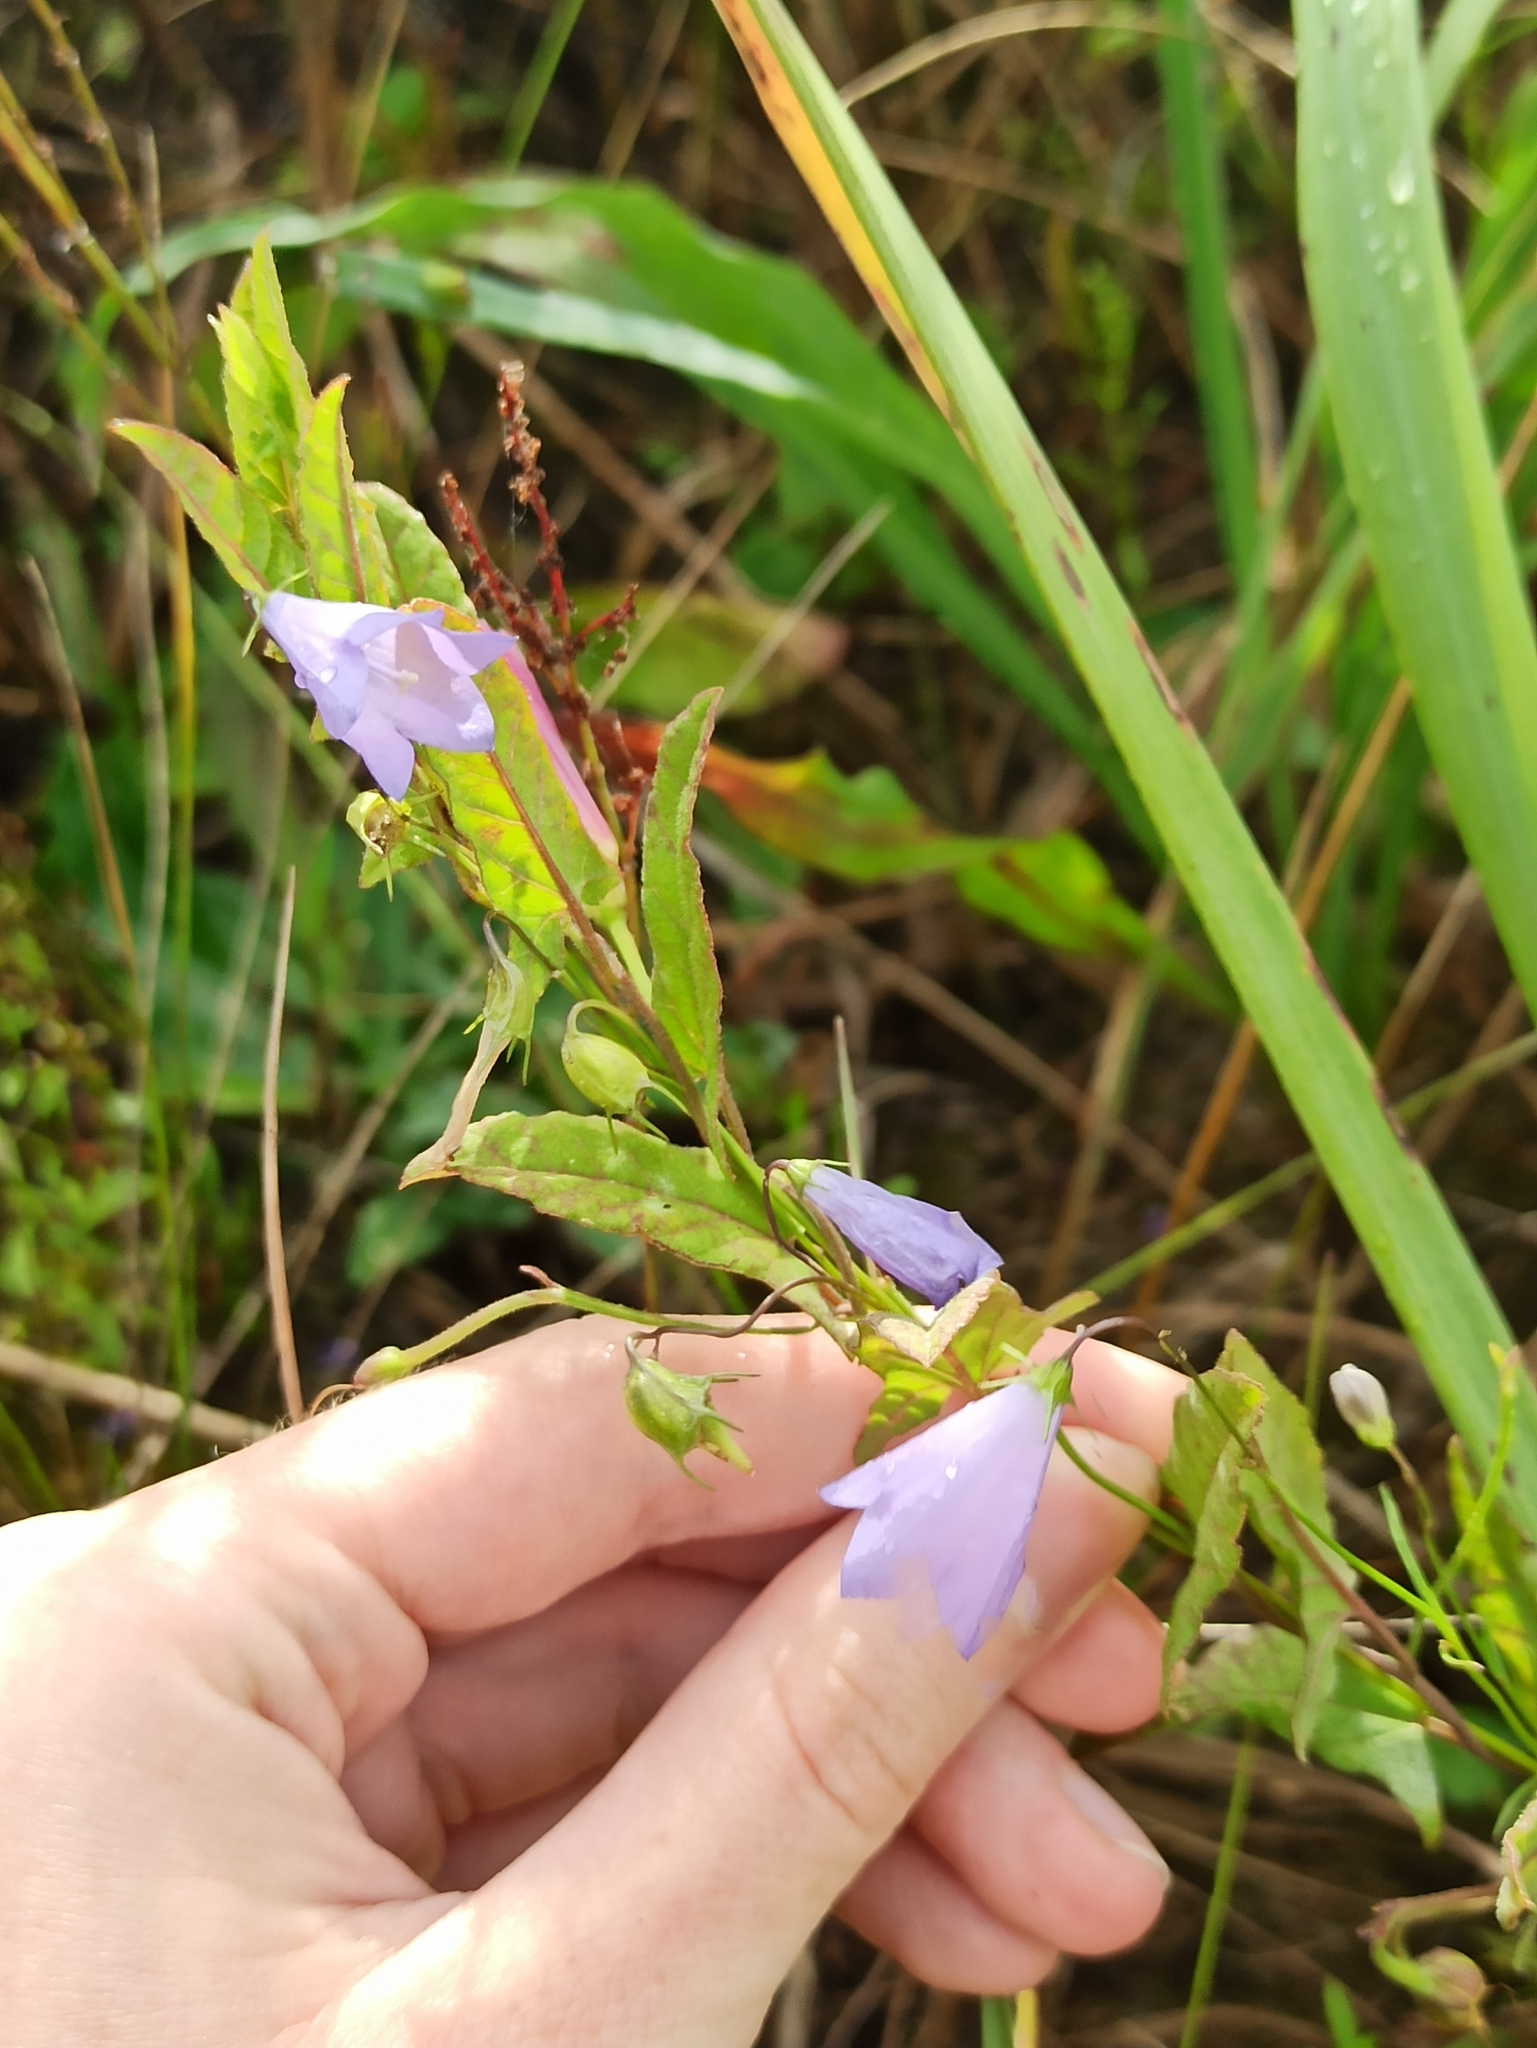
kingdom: Plantae
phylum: Tracheophyta
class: Magnoliopsida
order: Asterales
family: Campanulaceae
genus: Campanula
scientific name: Campanula rotundifolia
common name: Harebell
